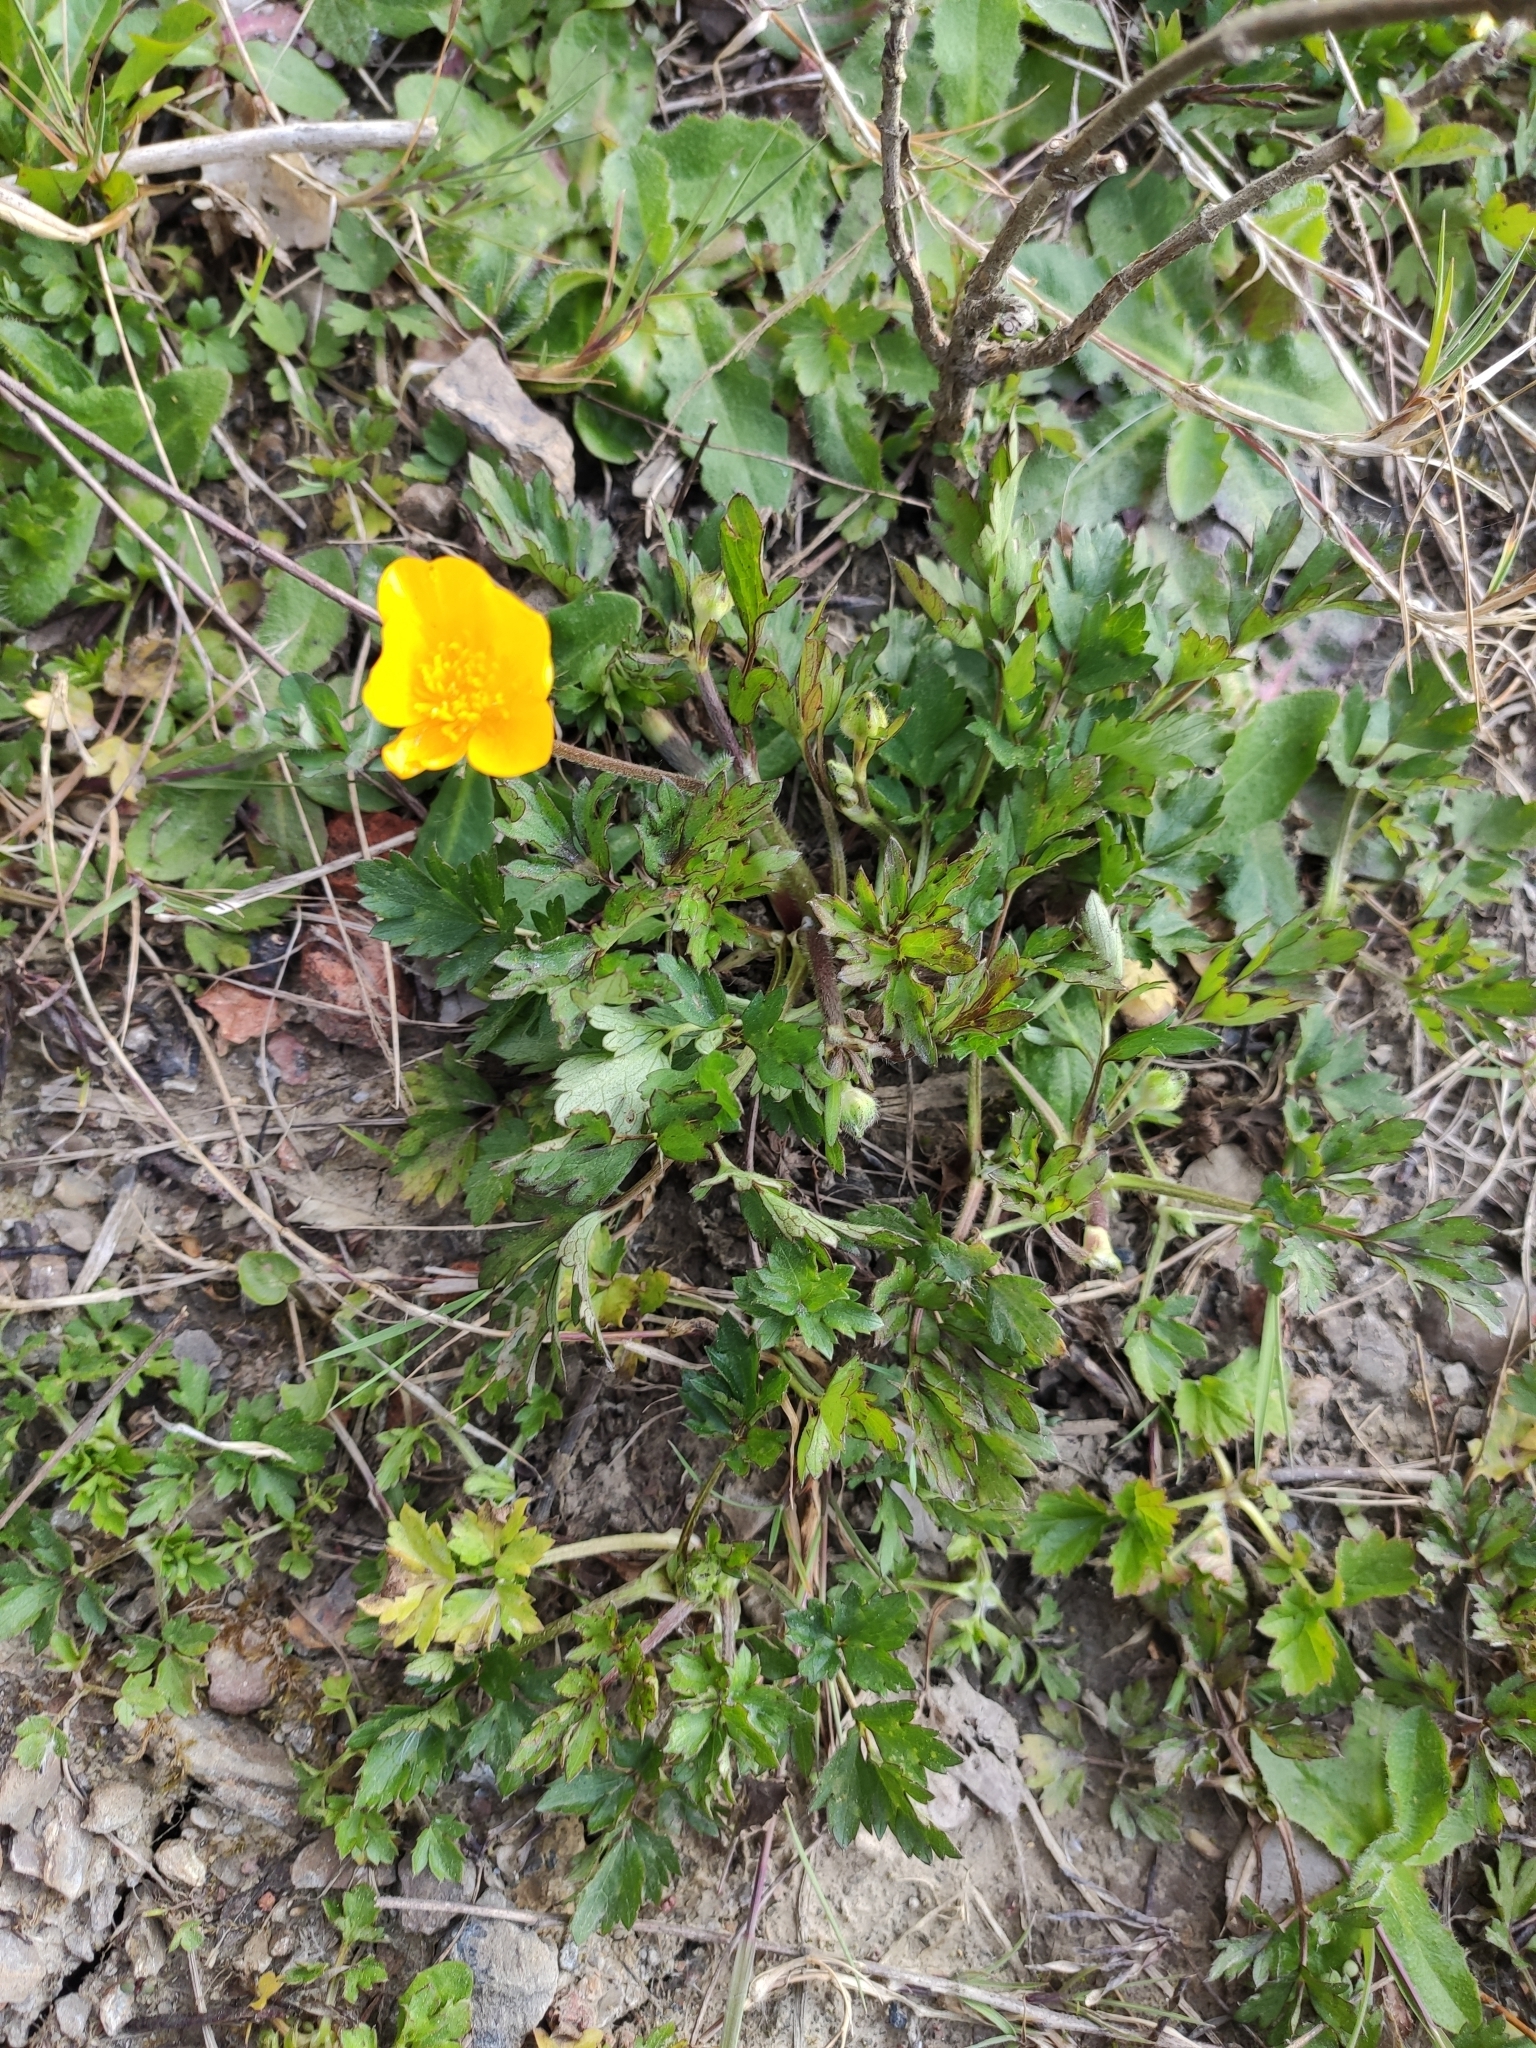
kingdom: Plantae
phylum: Tracheophyta
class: Magnoliopsida
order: Ranunculales
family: Ranunculaceae
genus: Ranunculus
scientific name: Ranunculus repens
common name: Creeping buttercup
